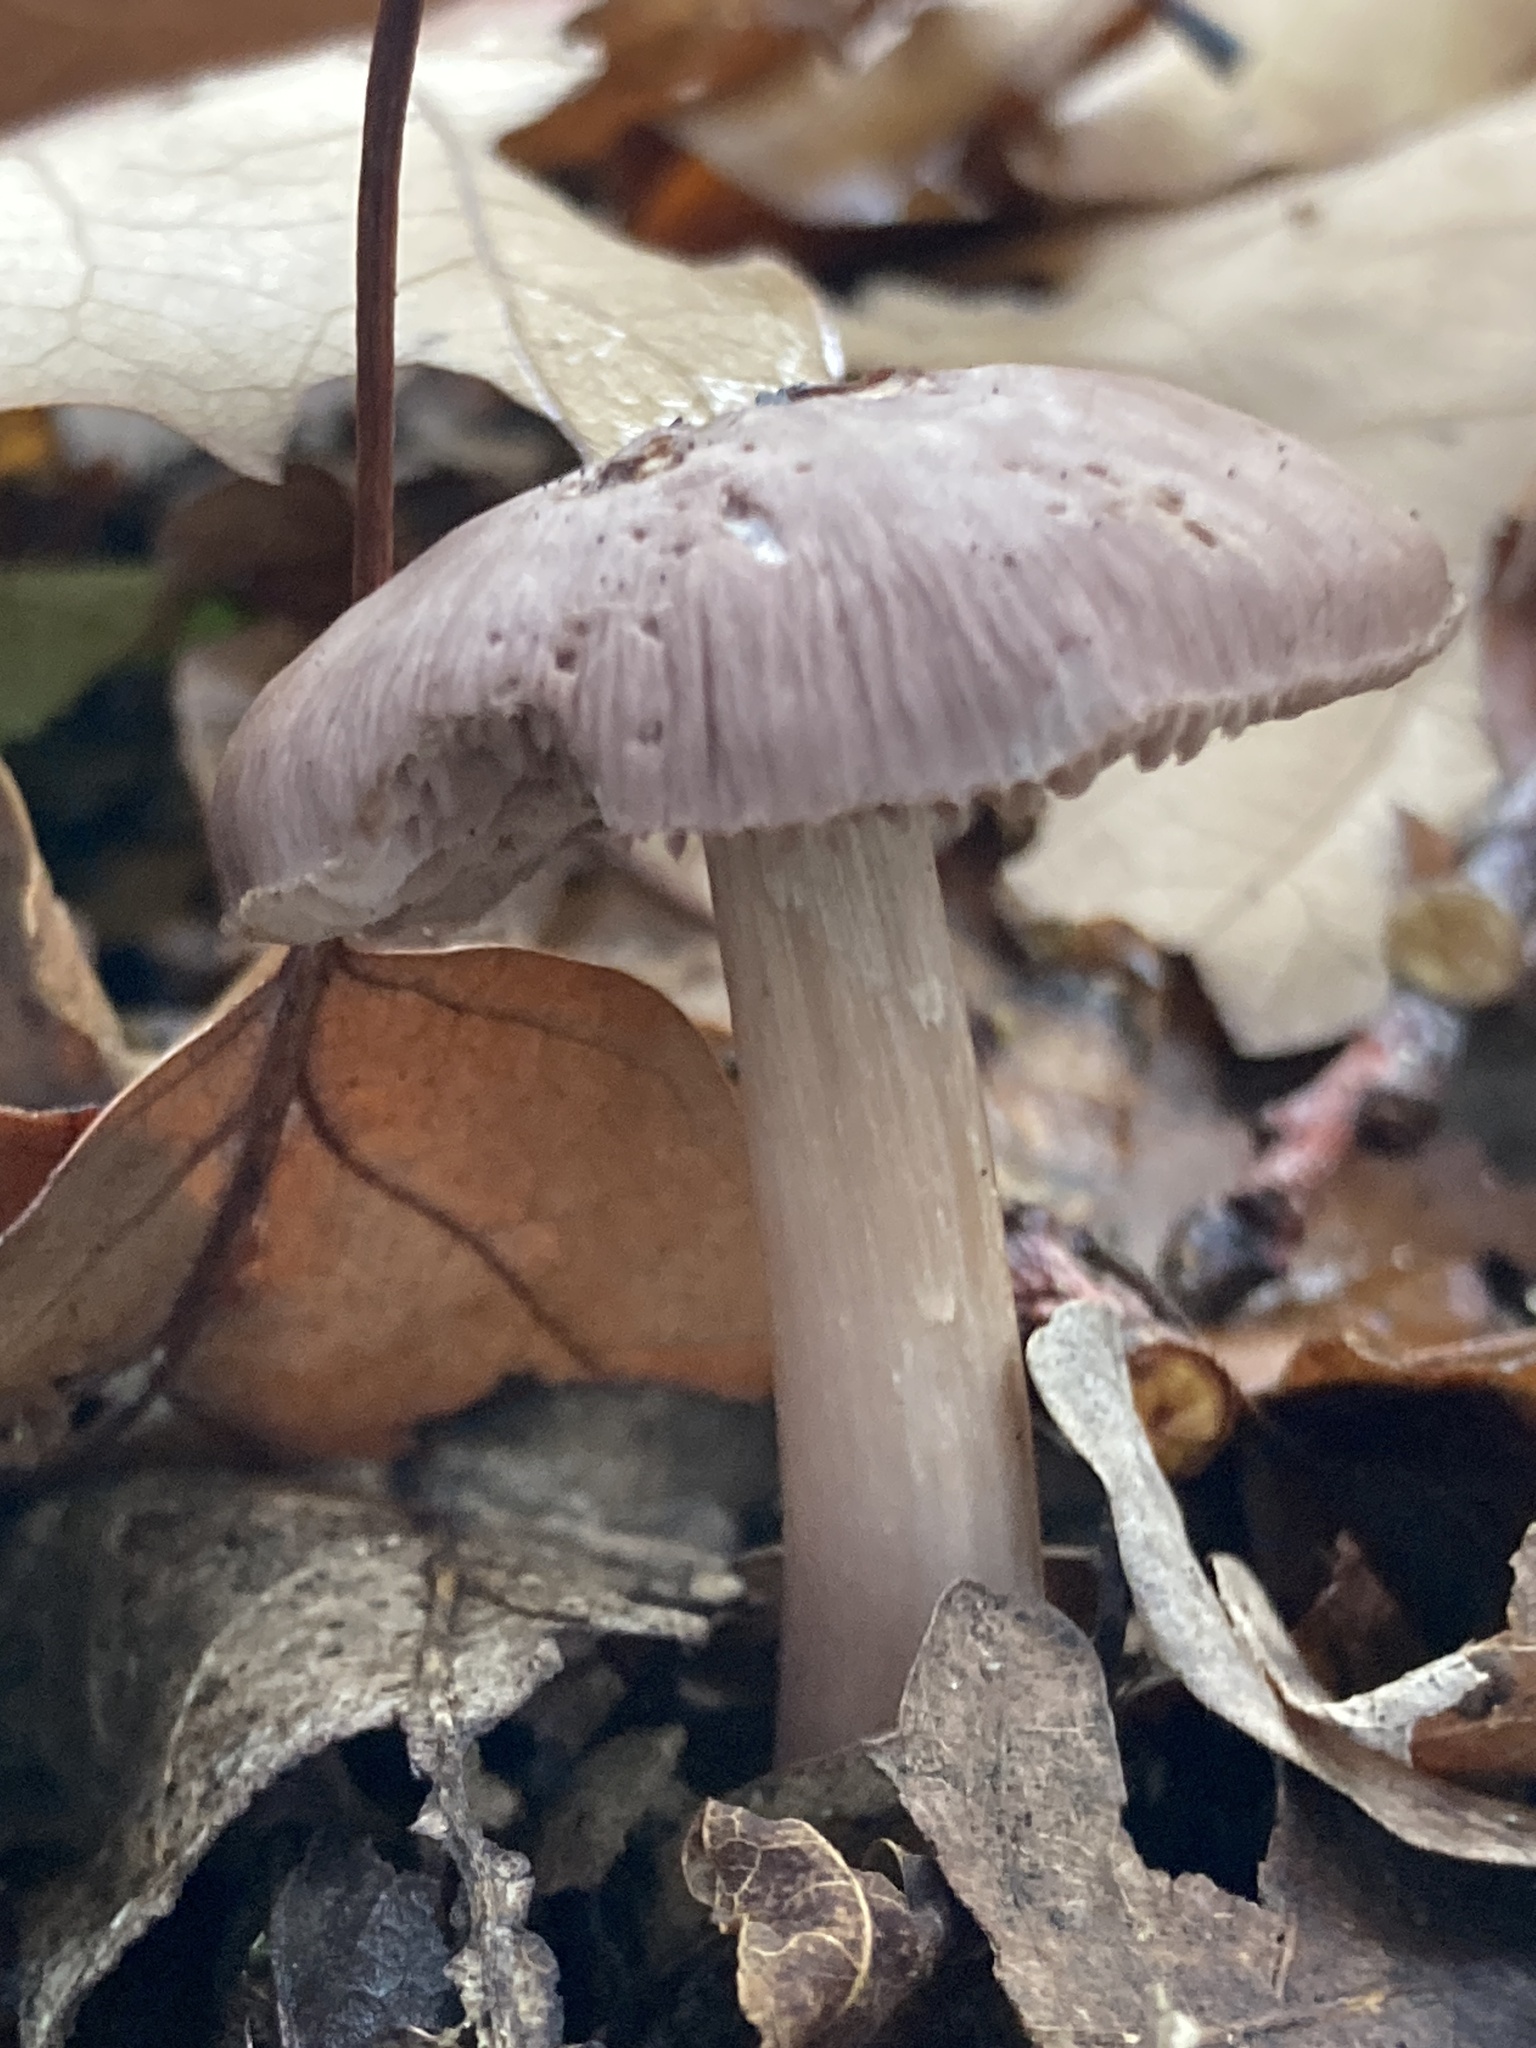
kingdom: Fungi
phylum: Basidiomycota
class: Agaricomycetes
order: Agaricales
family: Mycenaceae
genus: Mycena
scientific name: Mycena rosea
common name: Rosy bonnet
